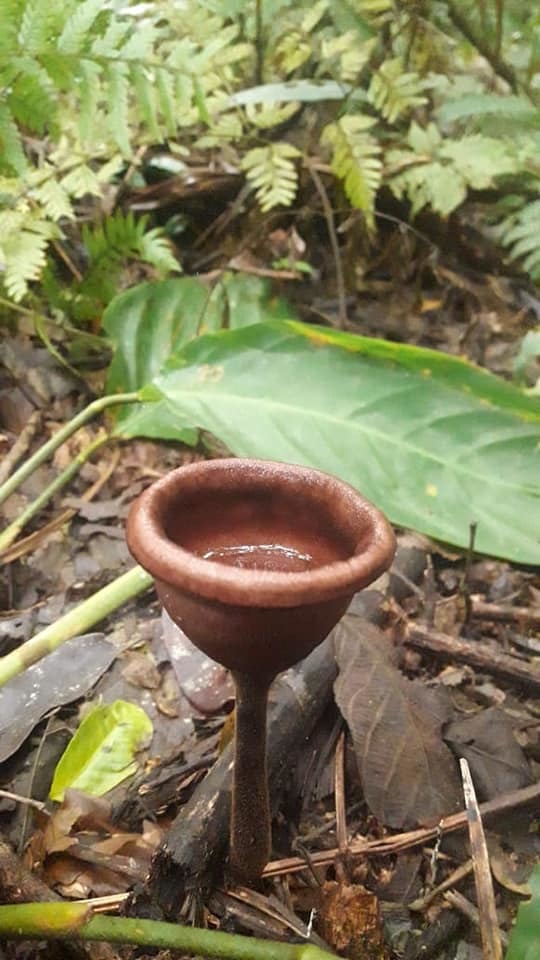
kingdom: Fungi
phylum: Basidiomycota
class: Agaricomycetes
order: Polyporales
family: Polyporaceae
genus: Lentinus
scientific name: Lentinus velutinus
